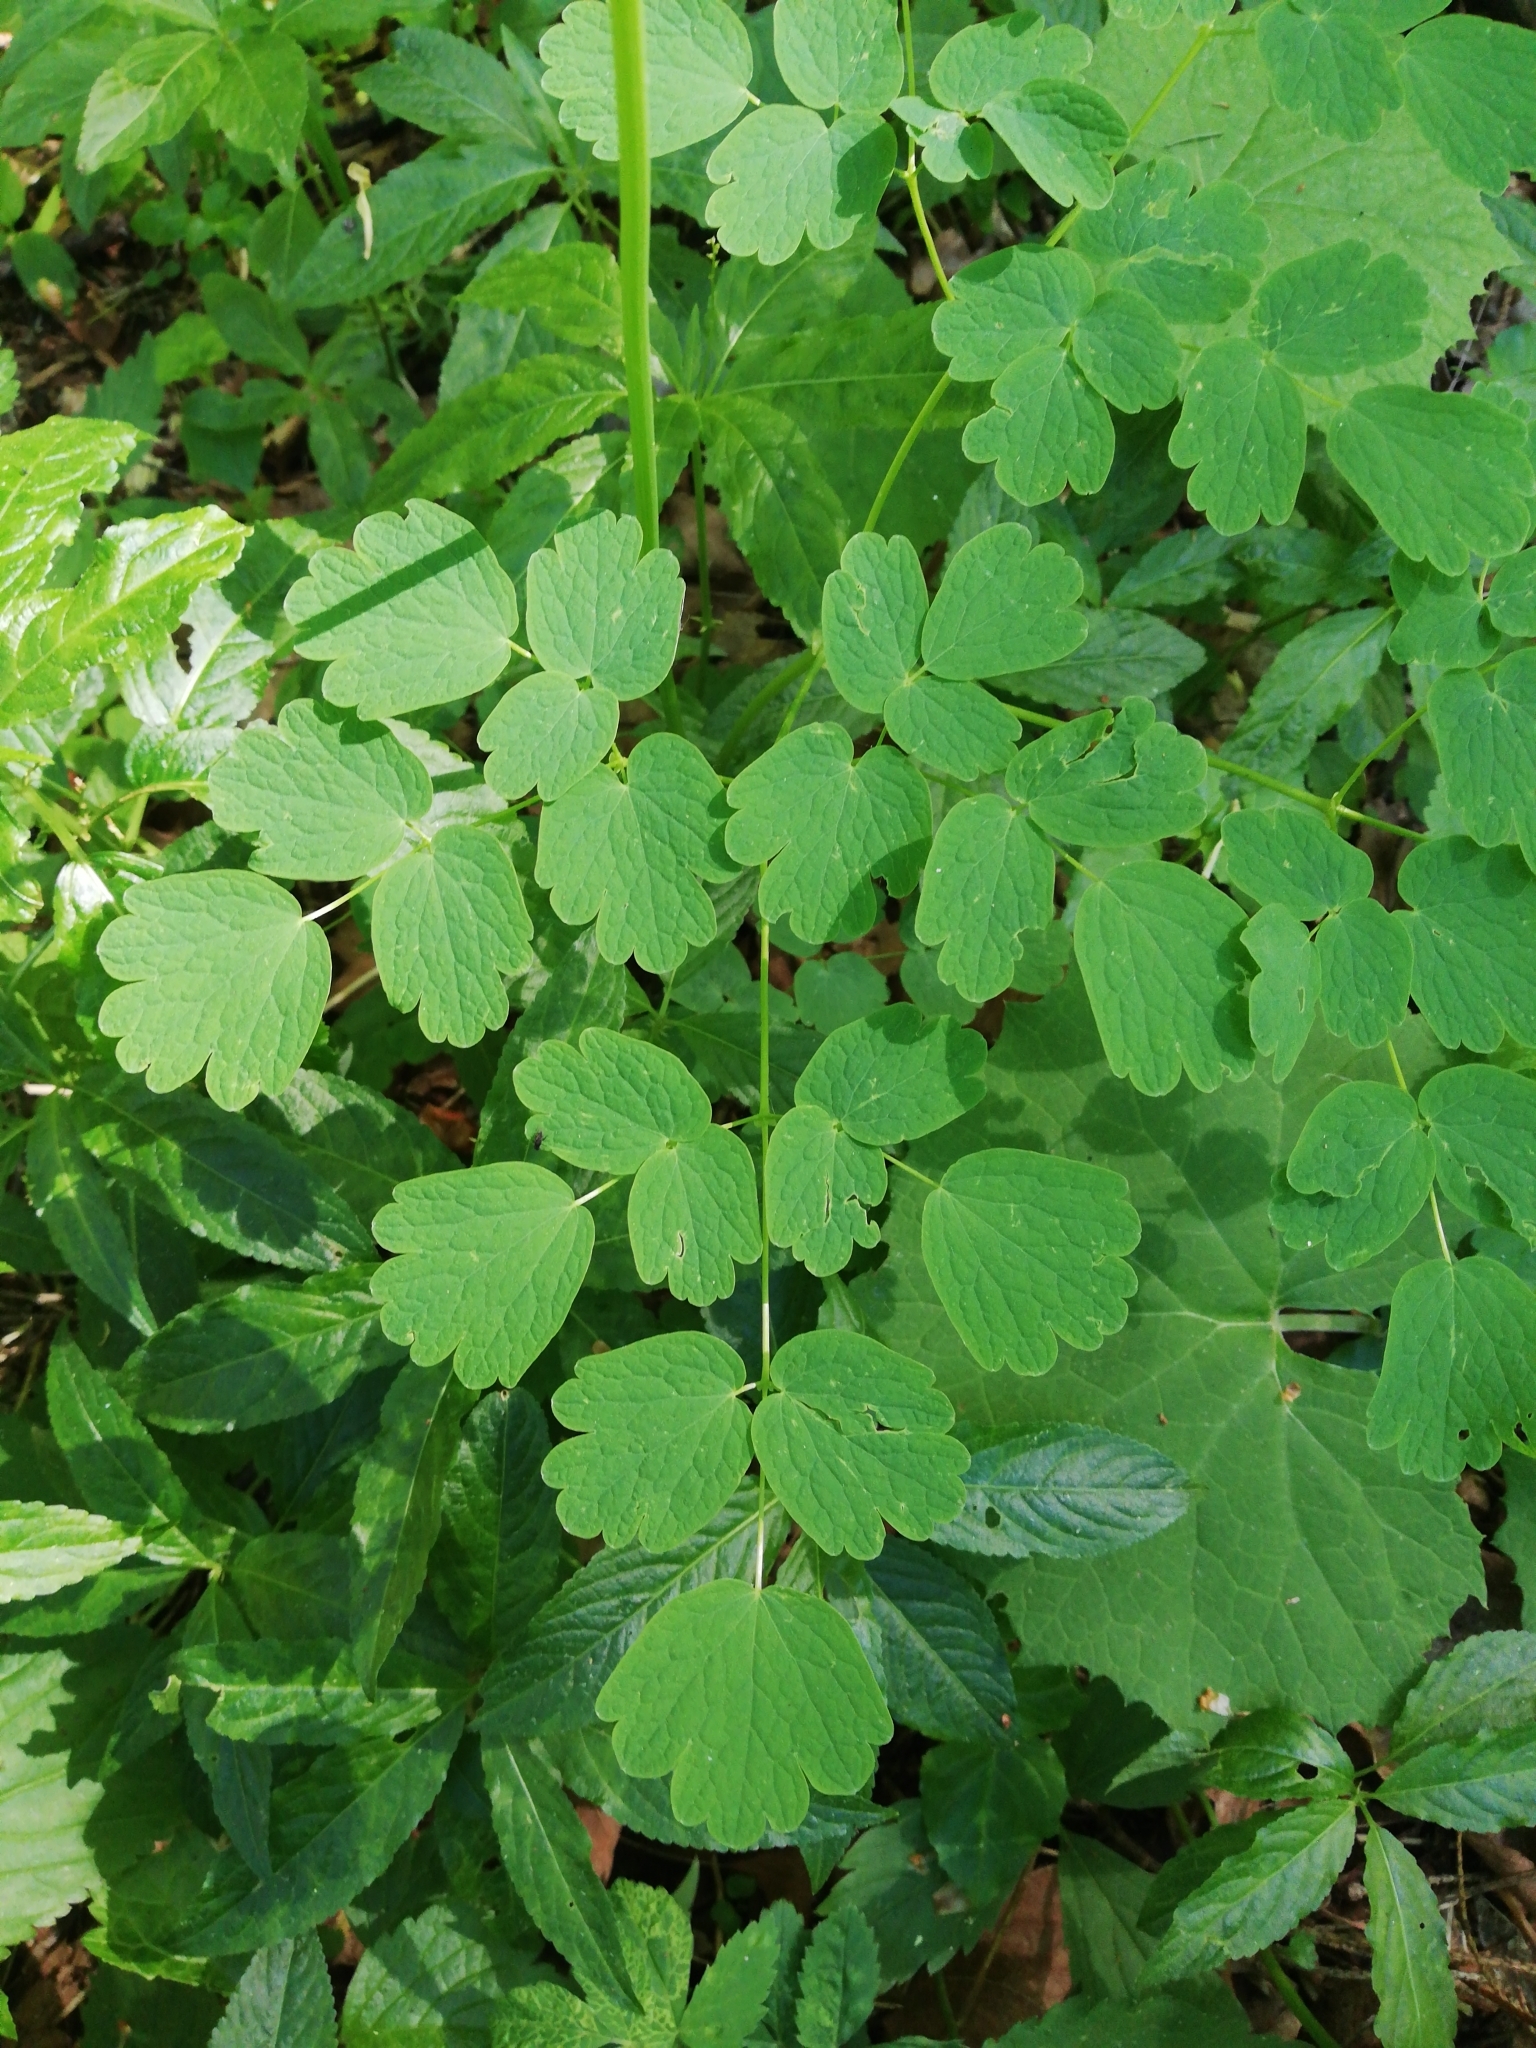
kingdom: Plantae
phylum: Tracheophyta
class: Magnoliopsida
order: Ranunculales
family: Ranunculaceae
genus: Thalictrum
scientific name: Thalictrum aquilegiifolium
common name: French meadow-rue
